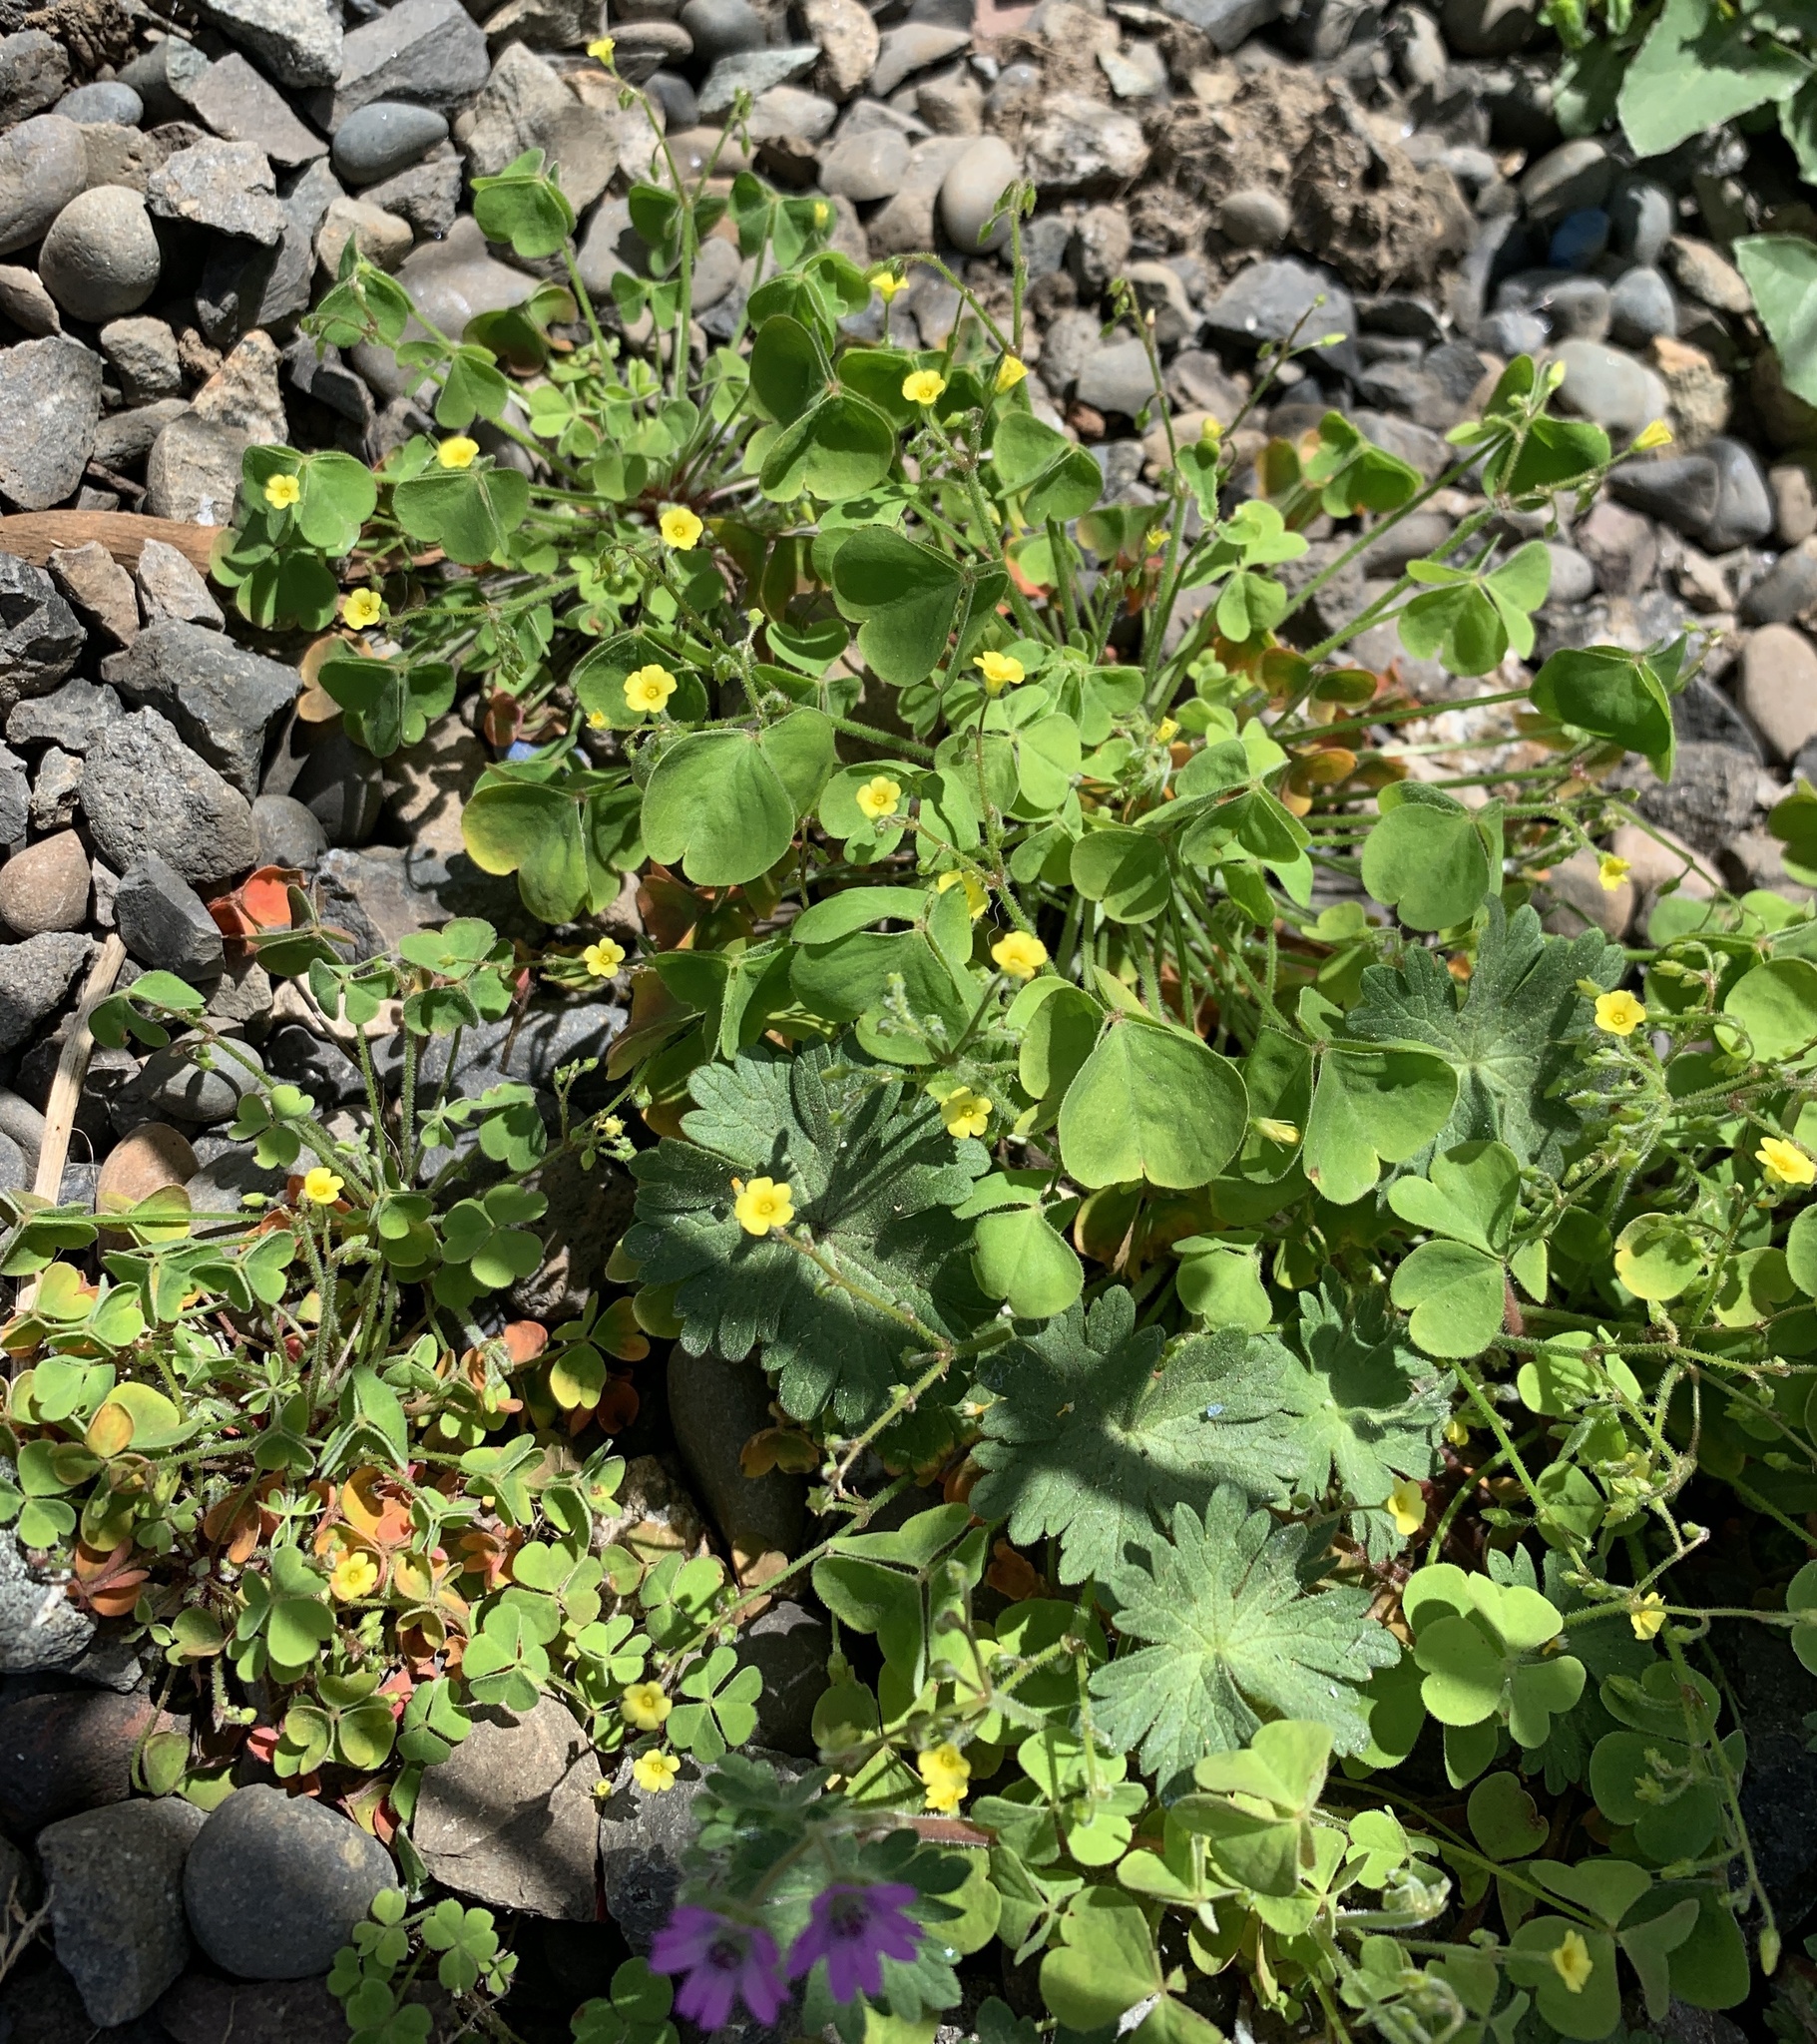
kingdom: Plantae
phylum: Tracheophyta
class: Magnoliopsida
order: Oxalidales
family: Oxalidaceae
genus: Oxalis
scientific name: Oxalis laxa
